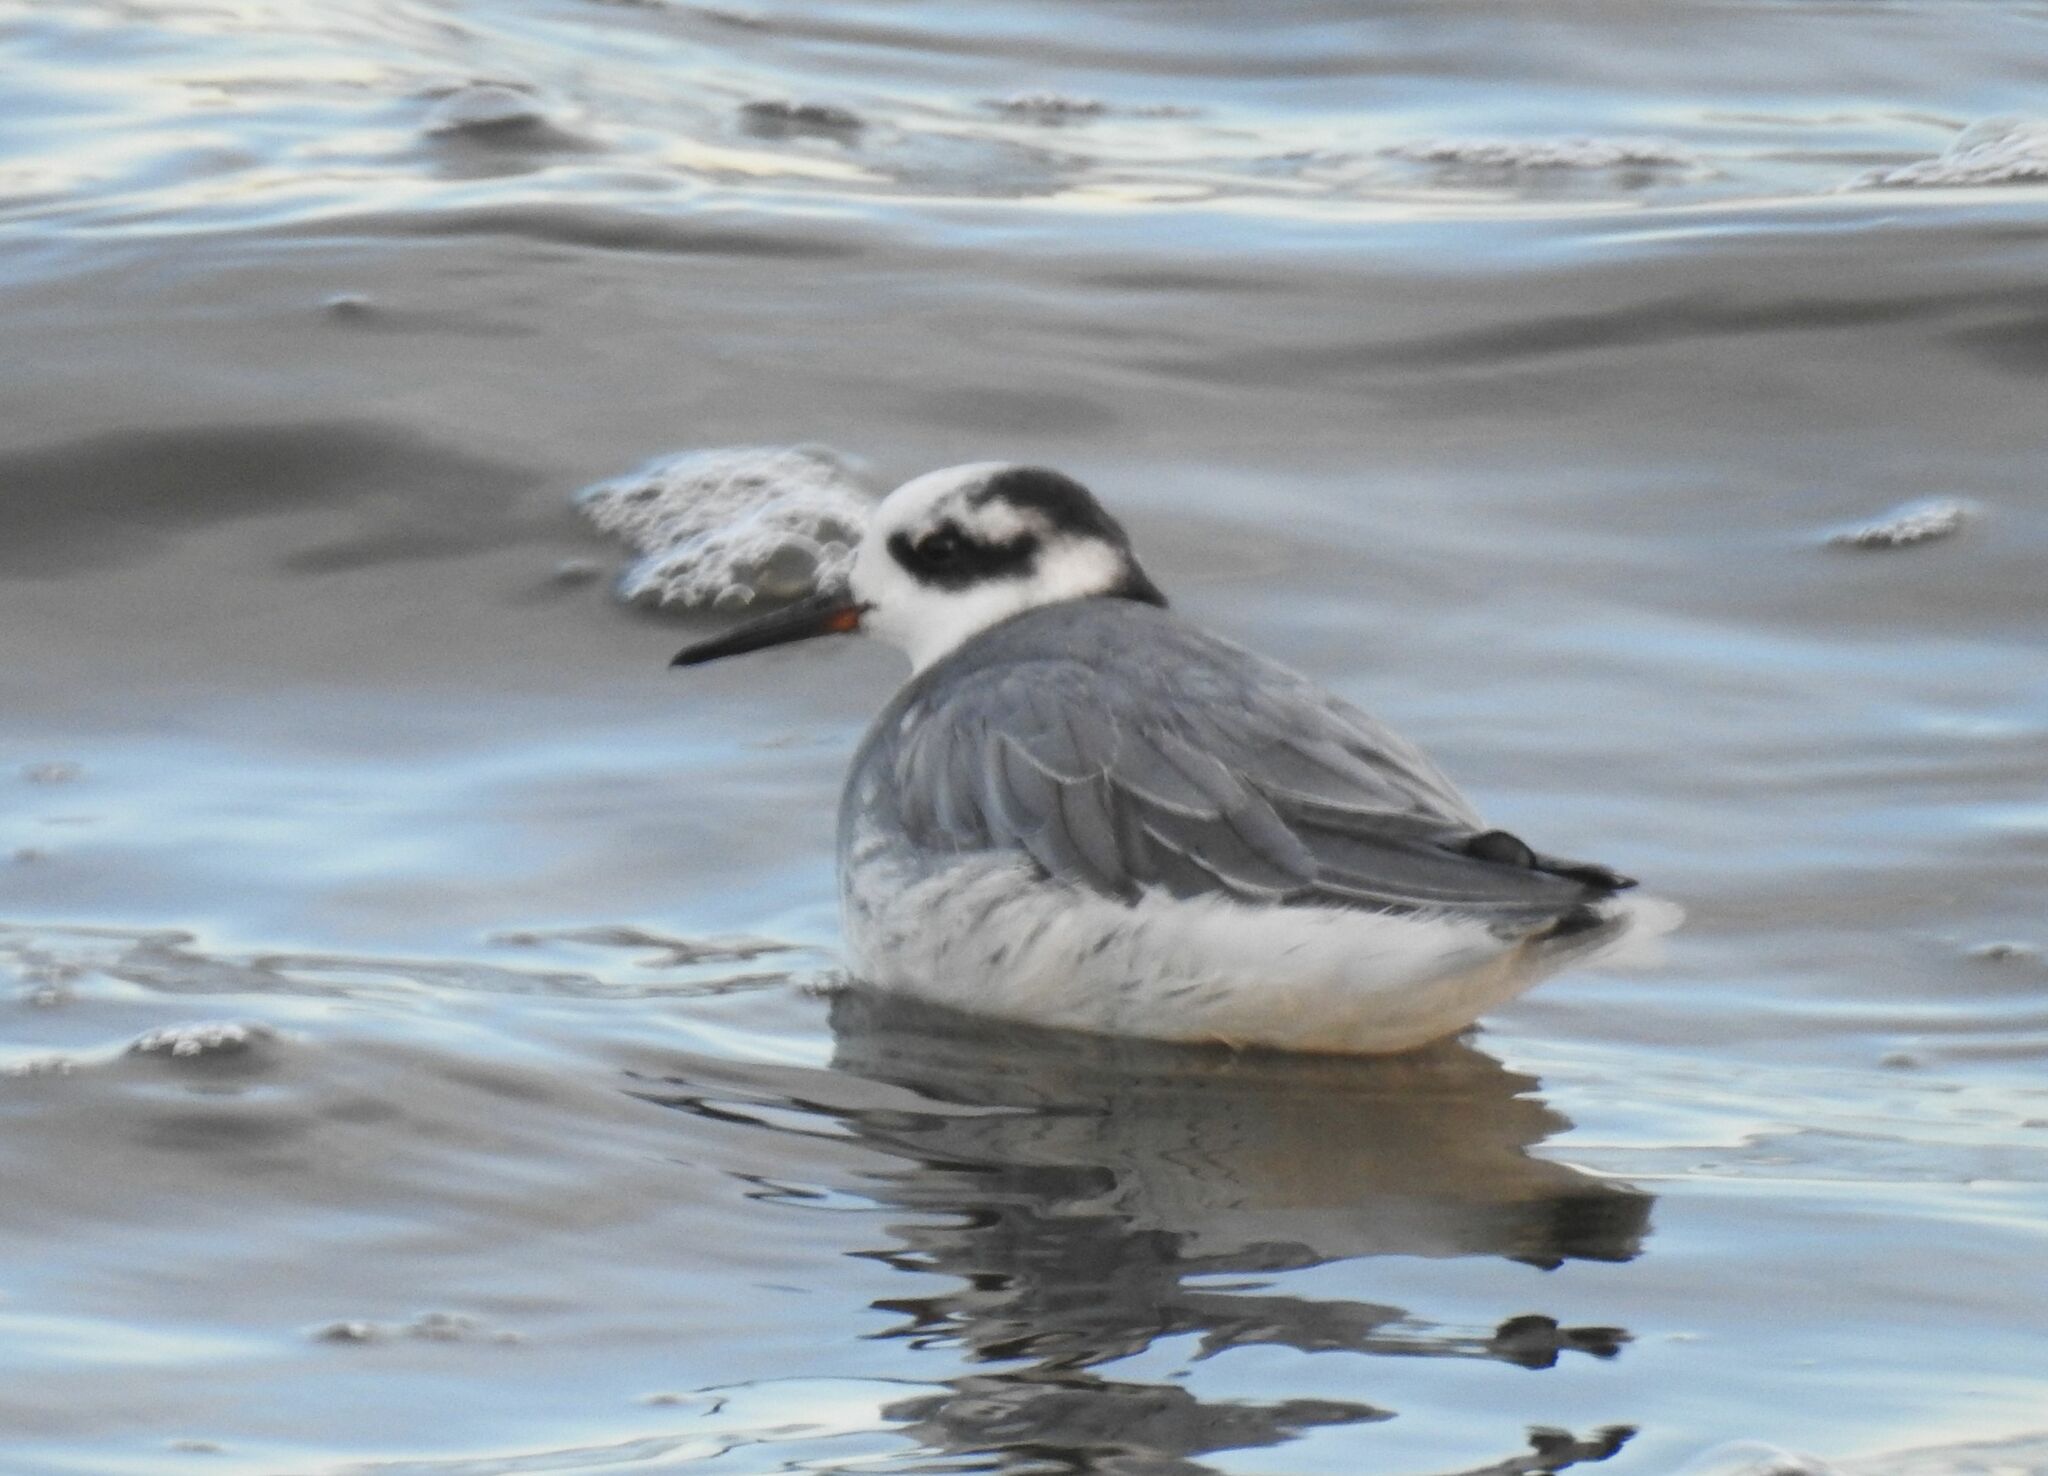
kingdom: Animalia
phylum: Chordata
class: Aves
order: Charadriiformes
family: Scolopacidae
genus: Phalaropus
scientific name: Phalaropus fulicarius
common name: Red phalarope
